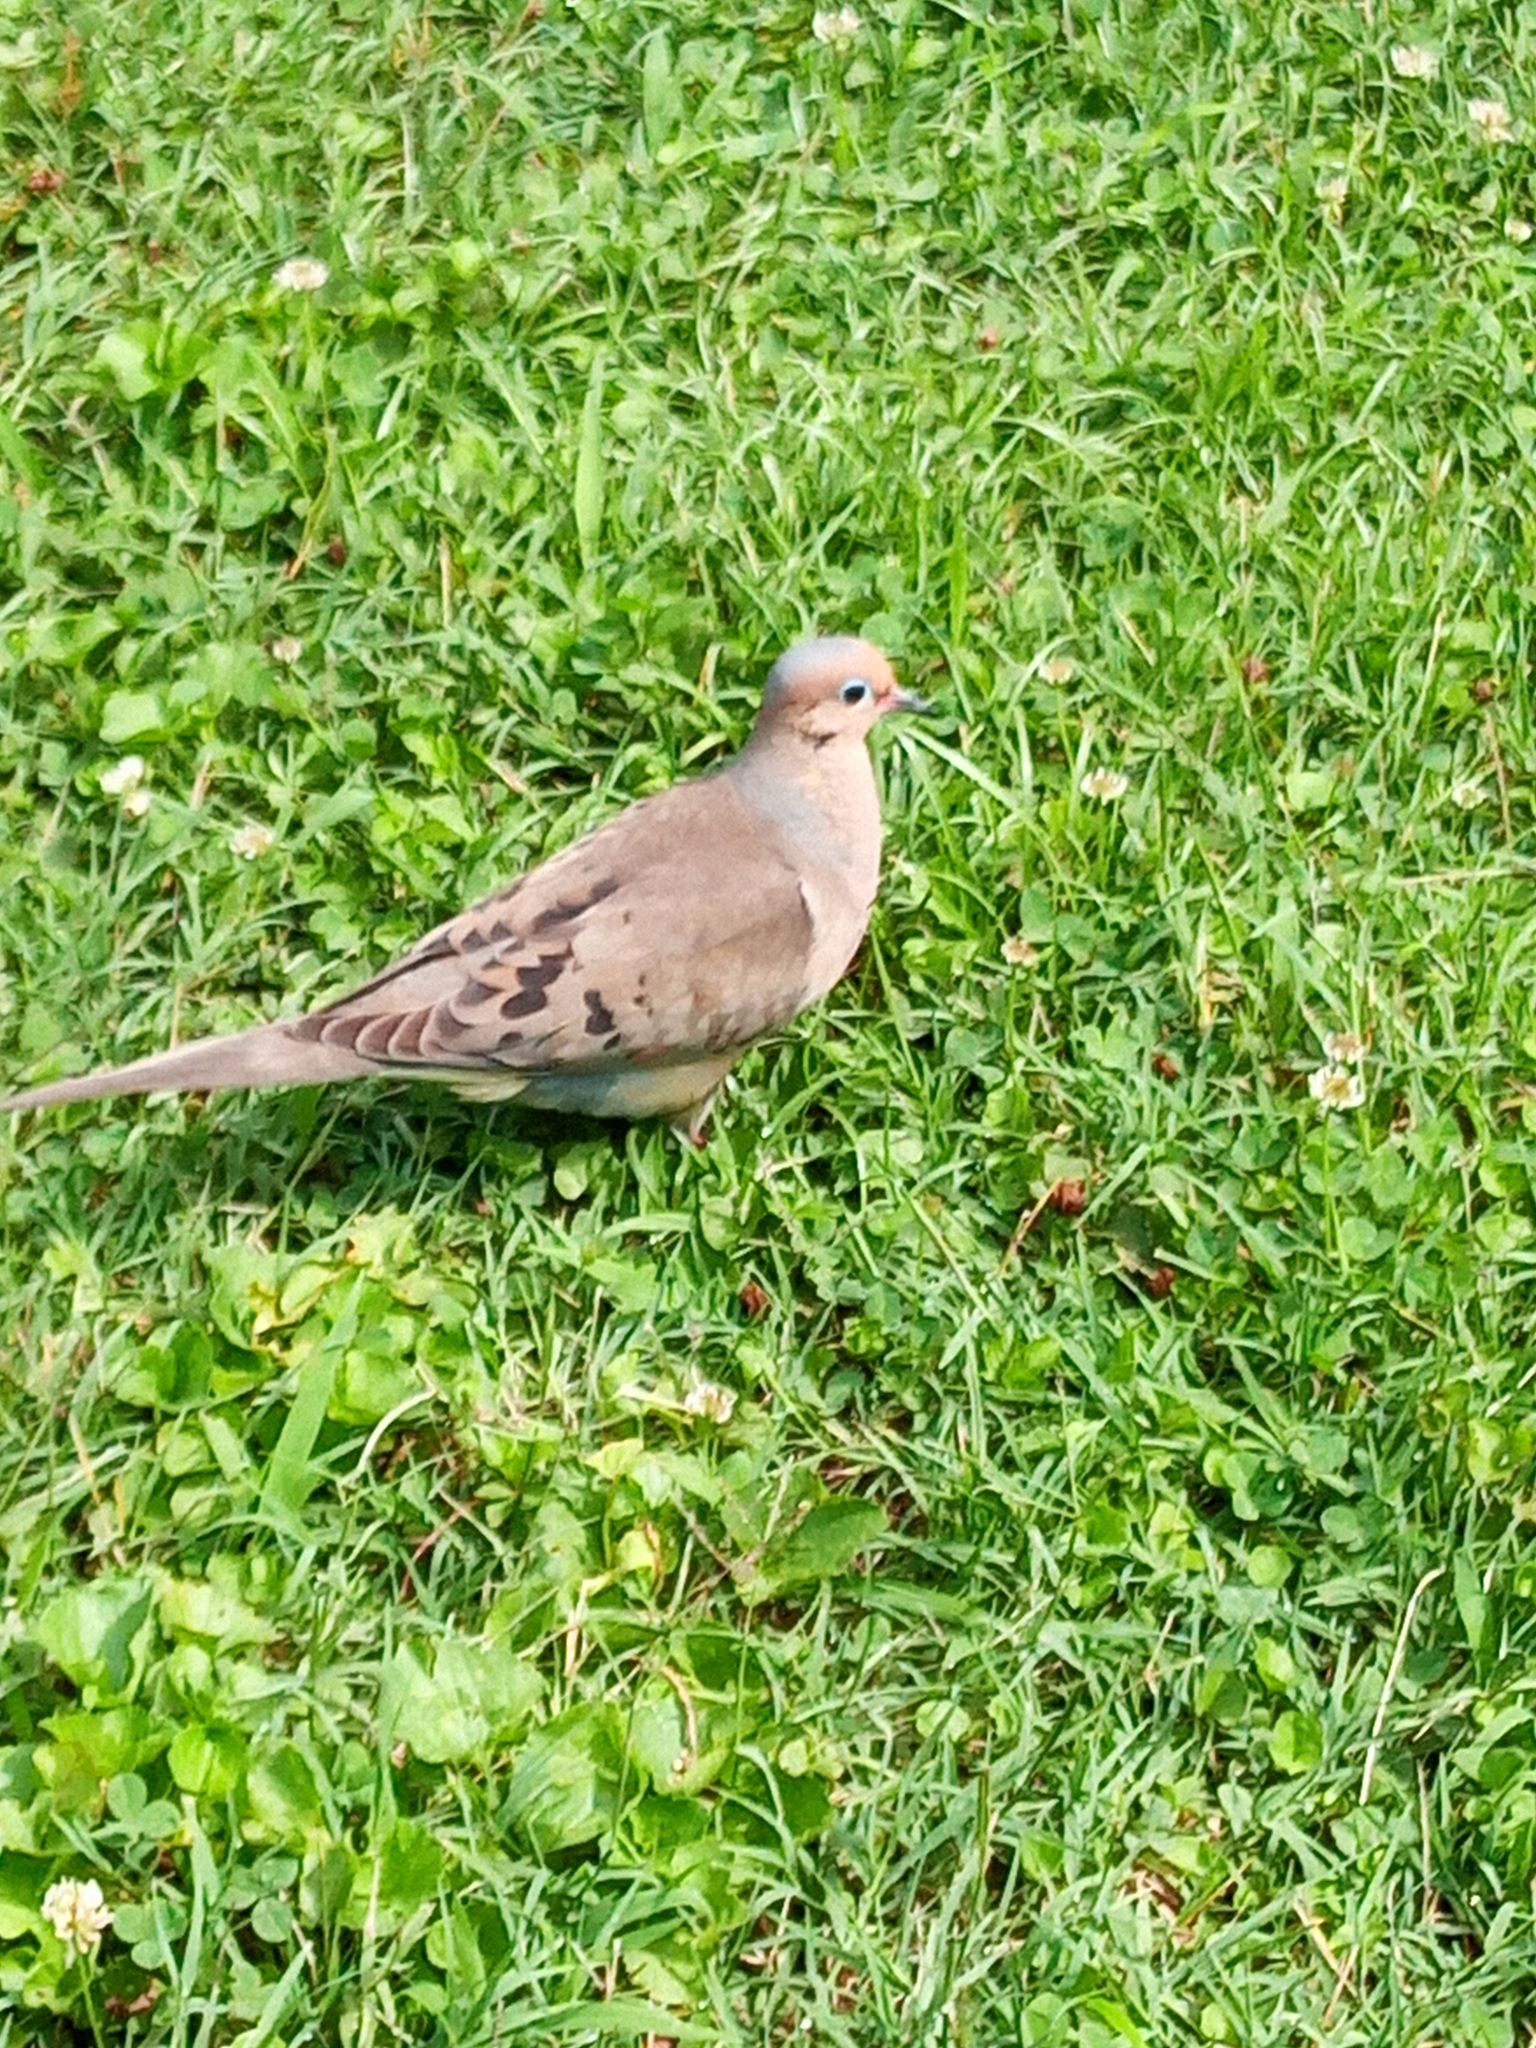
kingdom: Animalia
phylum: Chordata
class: Aves
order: Columbiformes
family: Columbidae
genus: Zenaida
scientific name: Zenaida macroura
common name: Mourning dove
